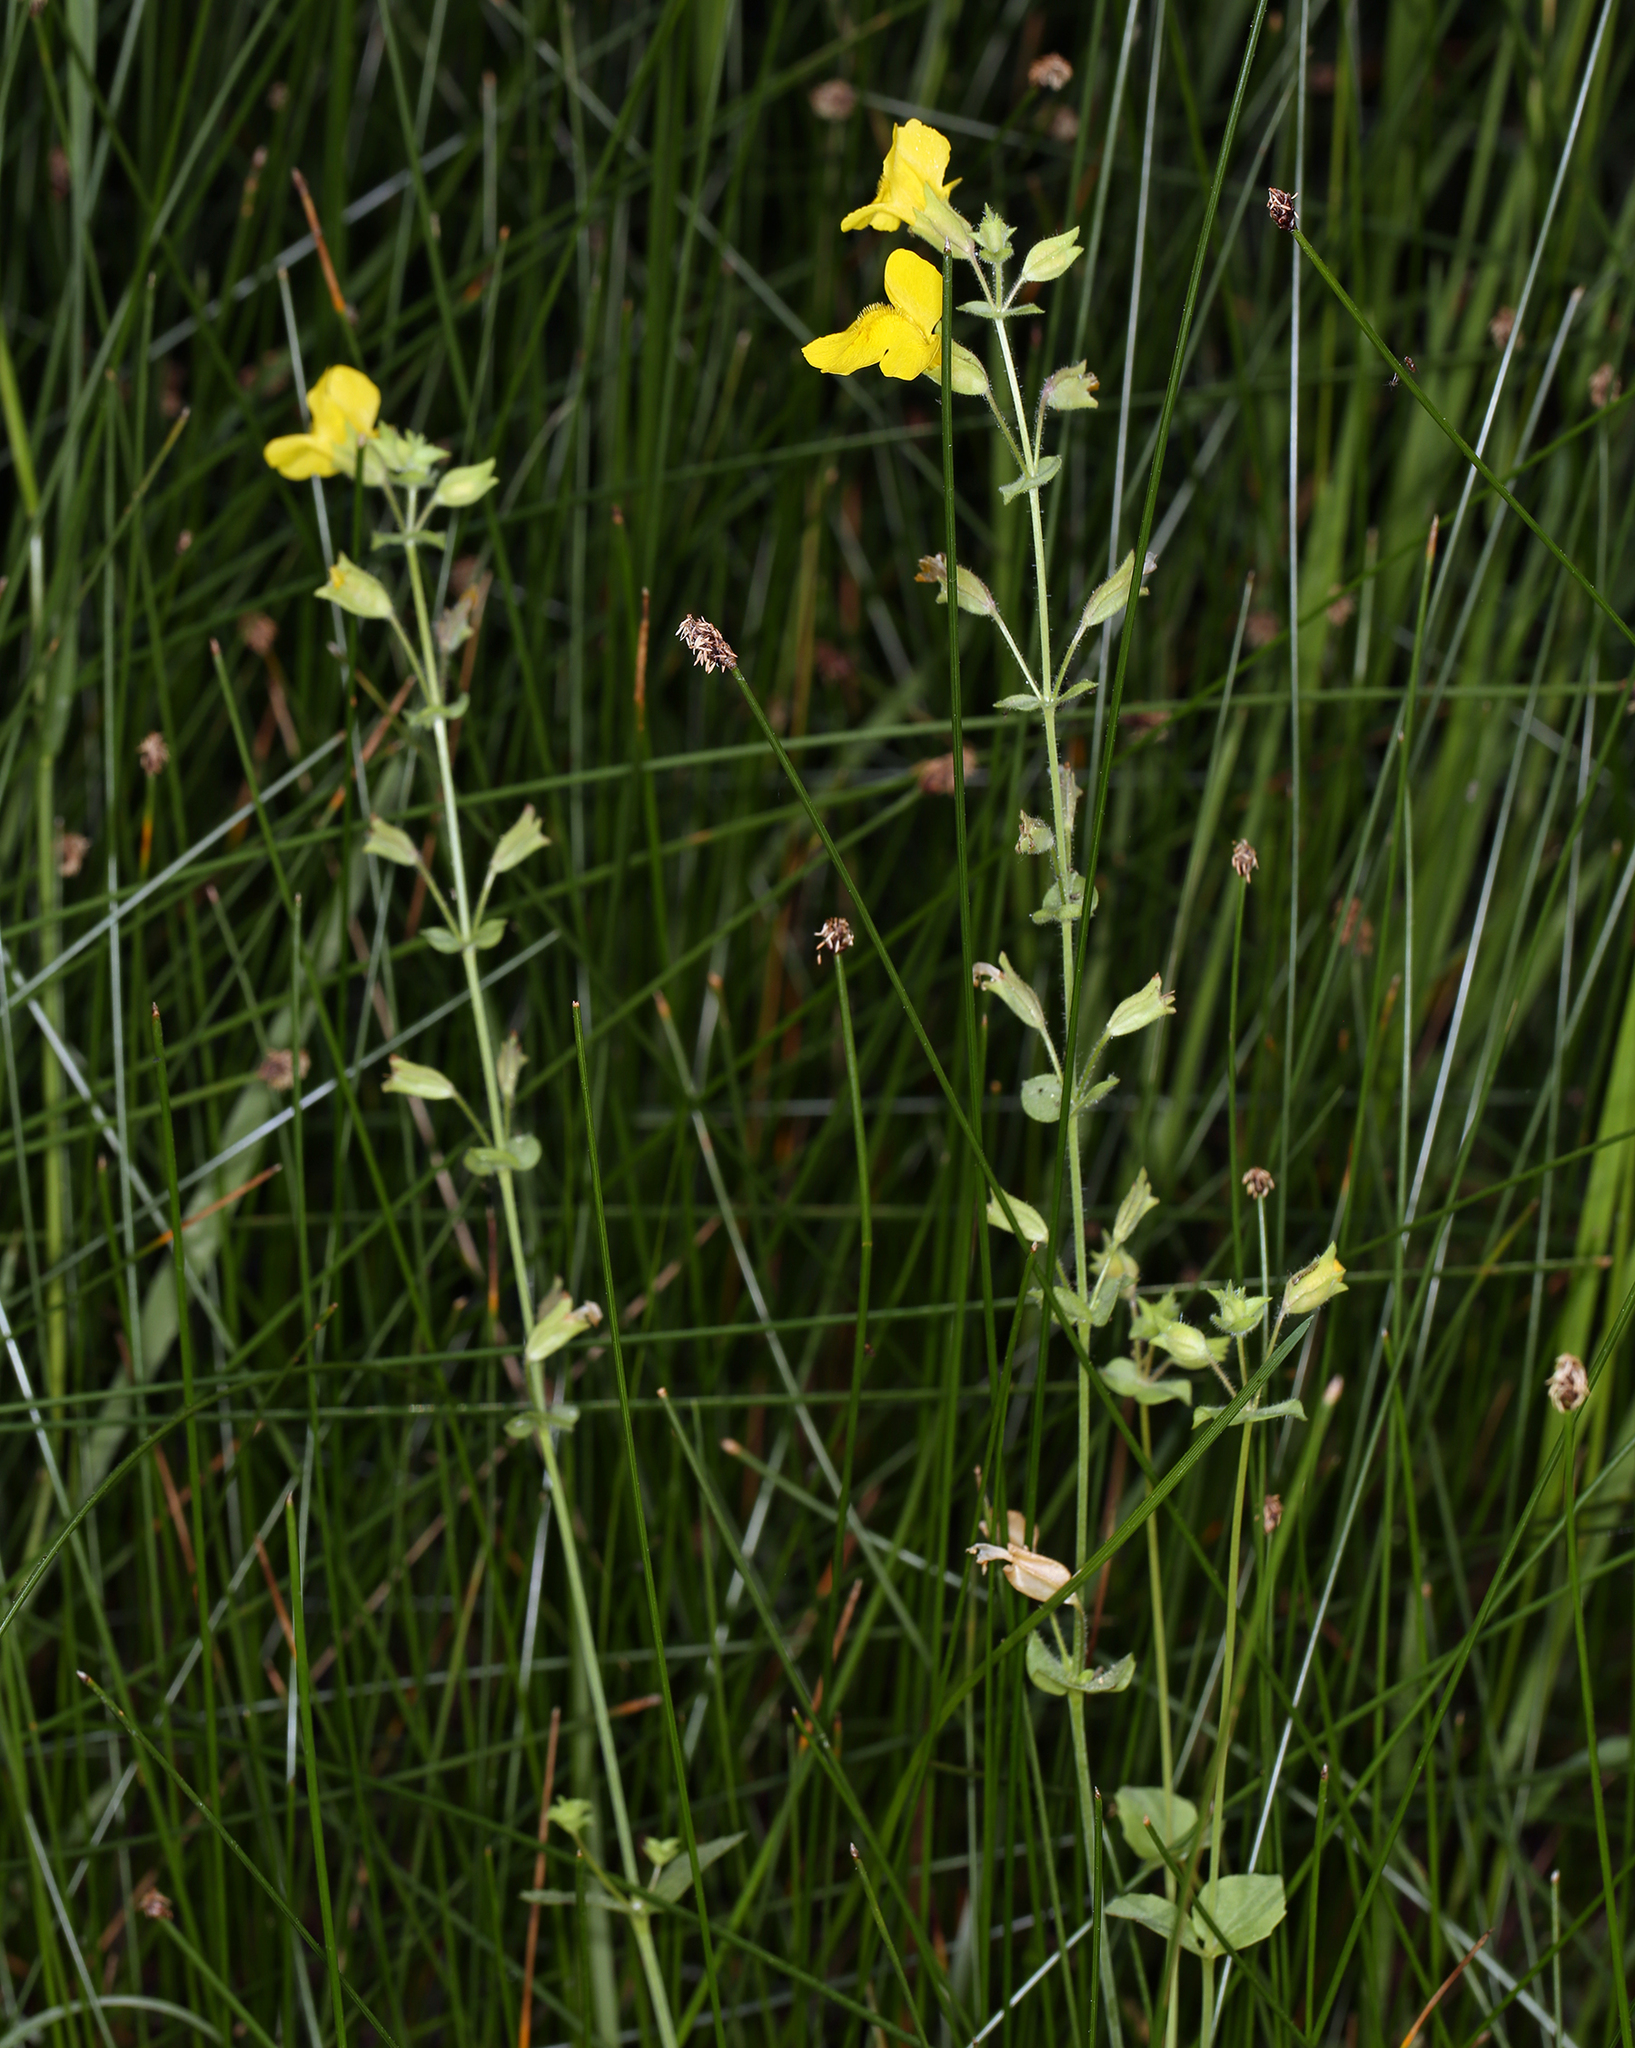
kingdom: Plantae
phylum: Tracheophyta
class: Magnoliopsida
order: Lamiales
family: Phrymaceae
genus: Erythranthe
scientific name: Erythranthe guttata
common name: Monkeyflower
